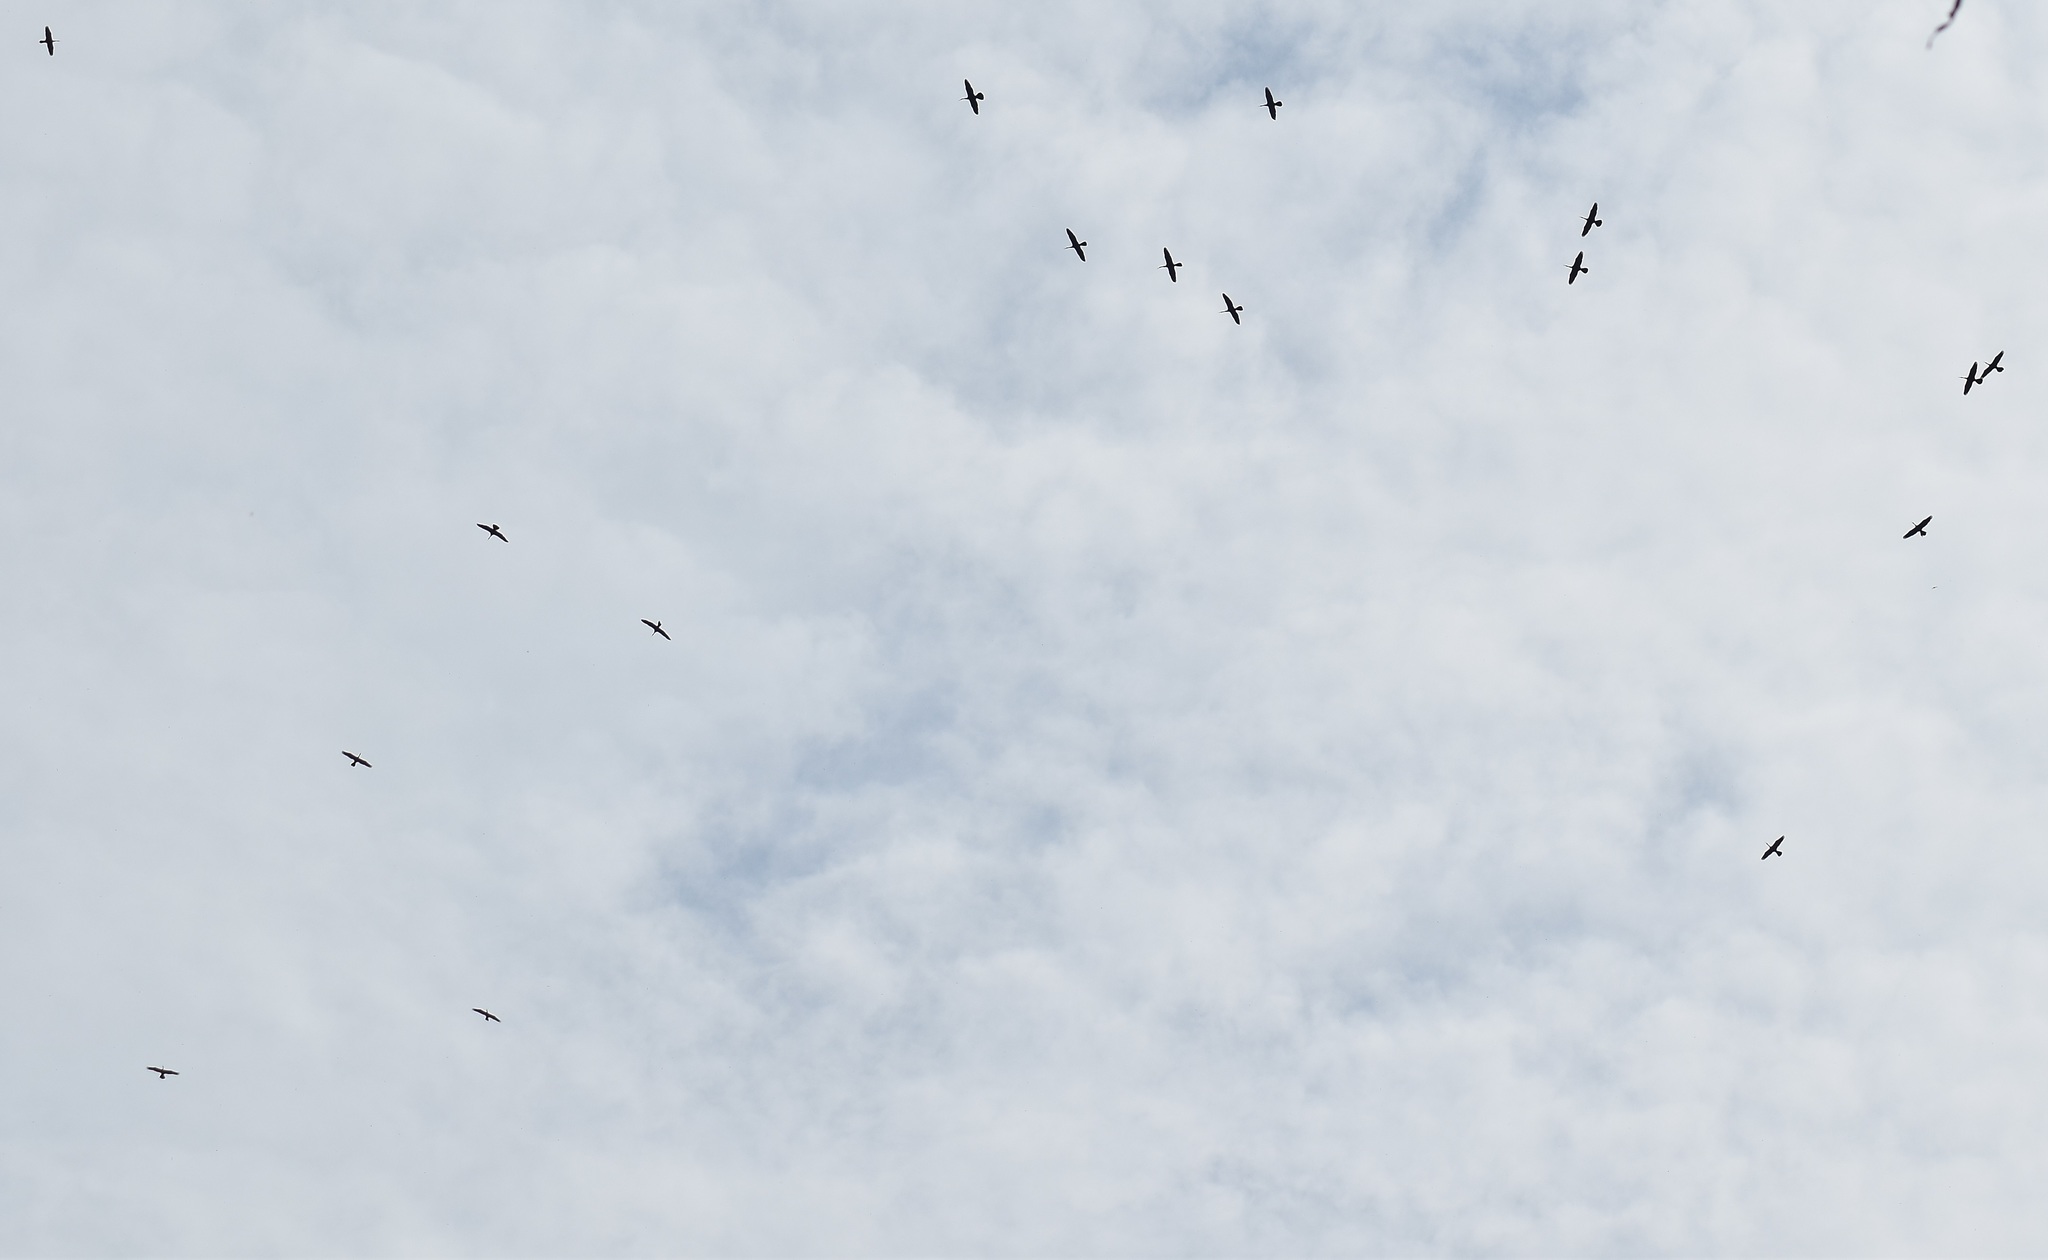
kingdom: Animalia
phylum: Chordata
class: Aves
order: Suliformes
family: Anhingidae
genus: Anhinga
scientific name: Anhinga melanogaster
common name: Oriental darter
